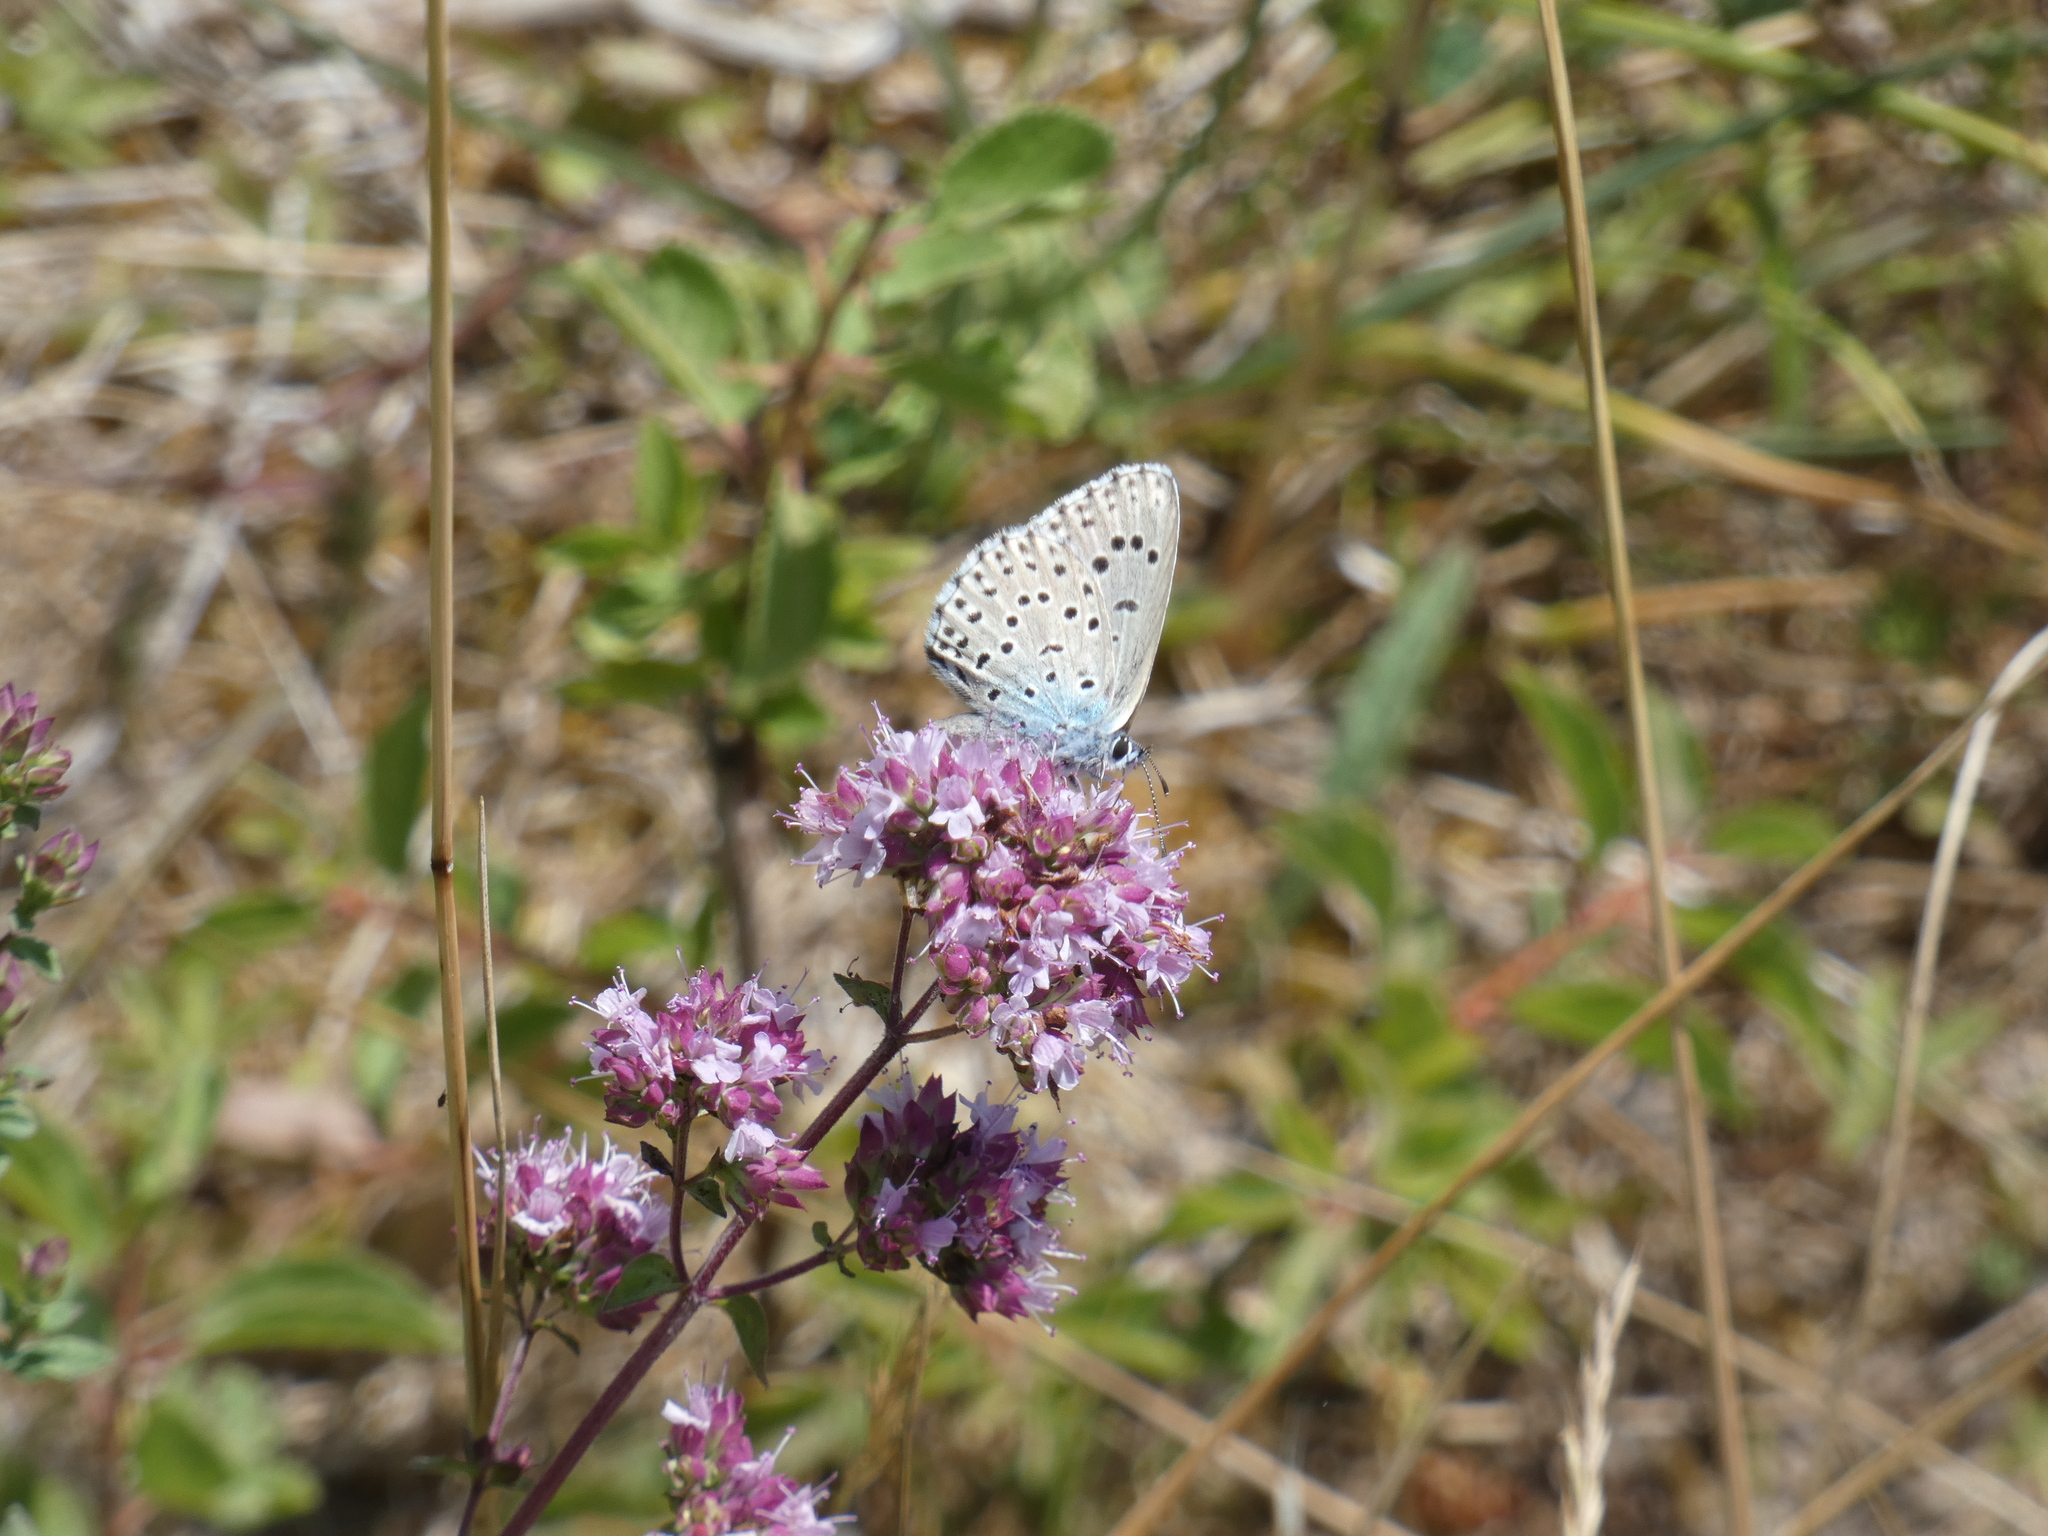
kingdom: Animalia
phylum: Arthropoda
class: Insecta
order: Lepidoptera
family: Lycaenidae
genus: Maculinea
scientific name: Maculinea arion
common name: Large blue
